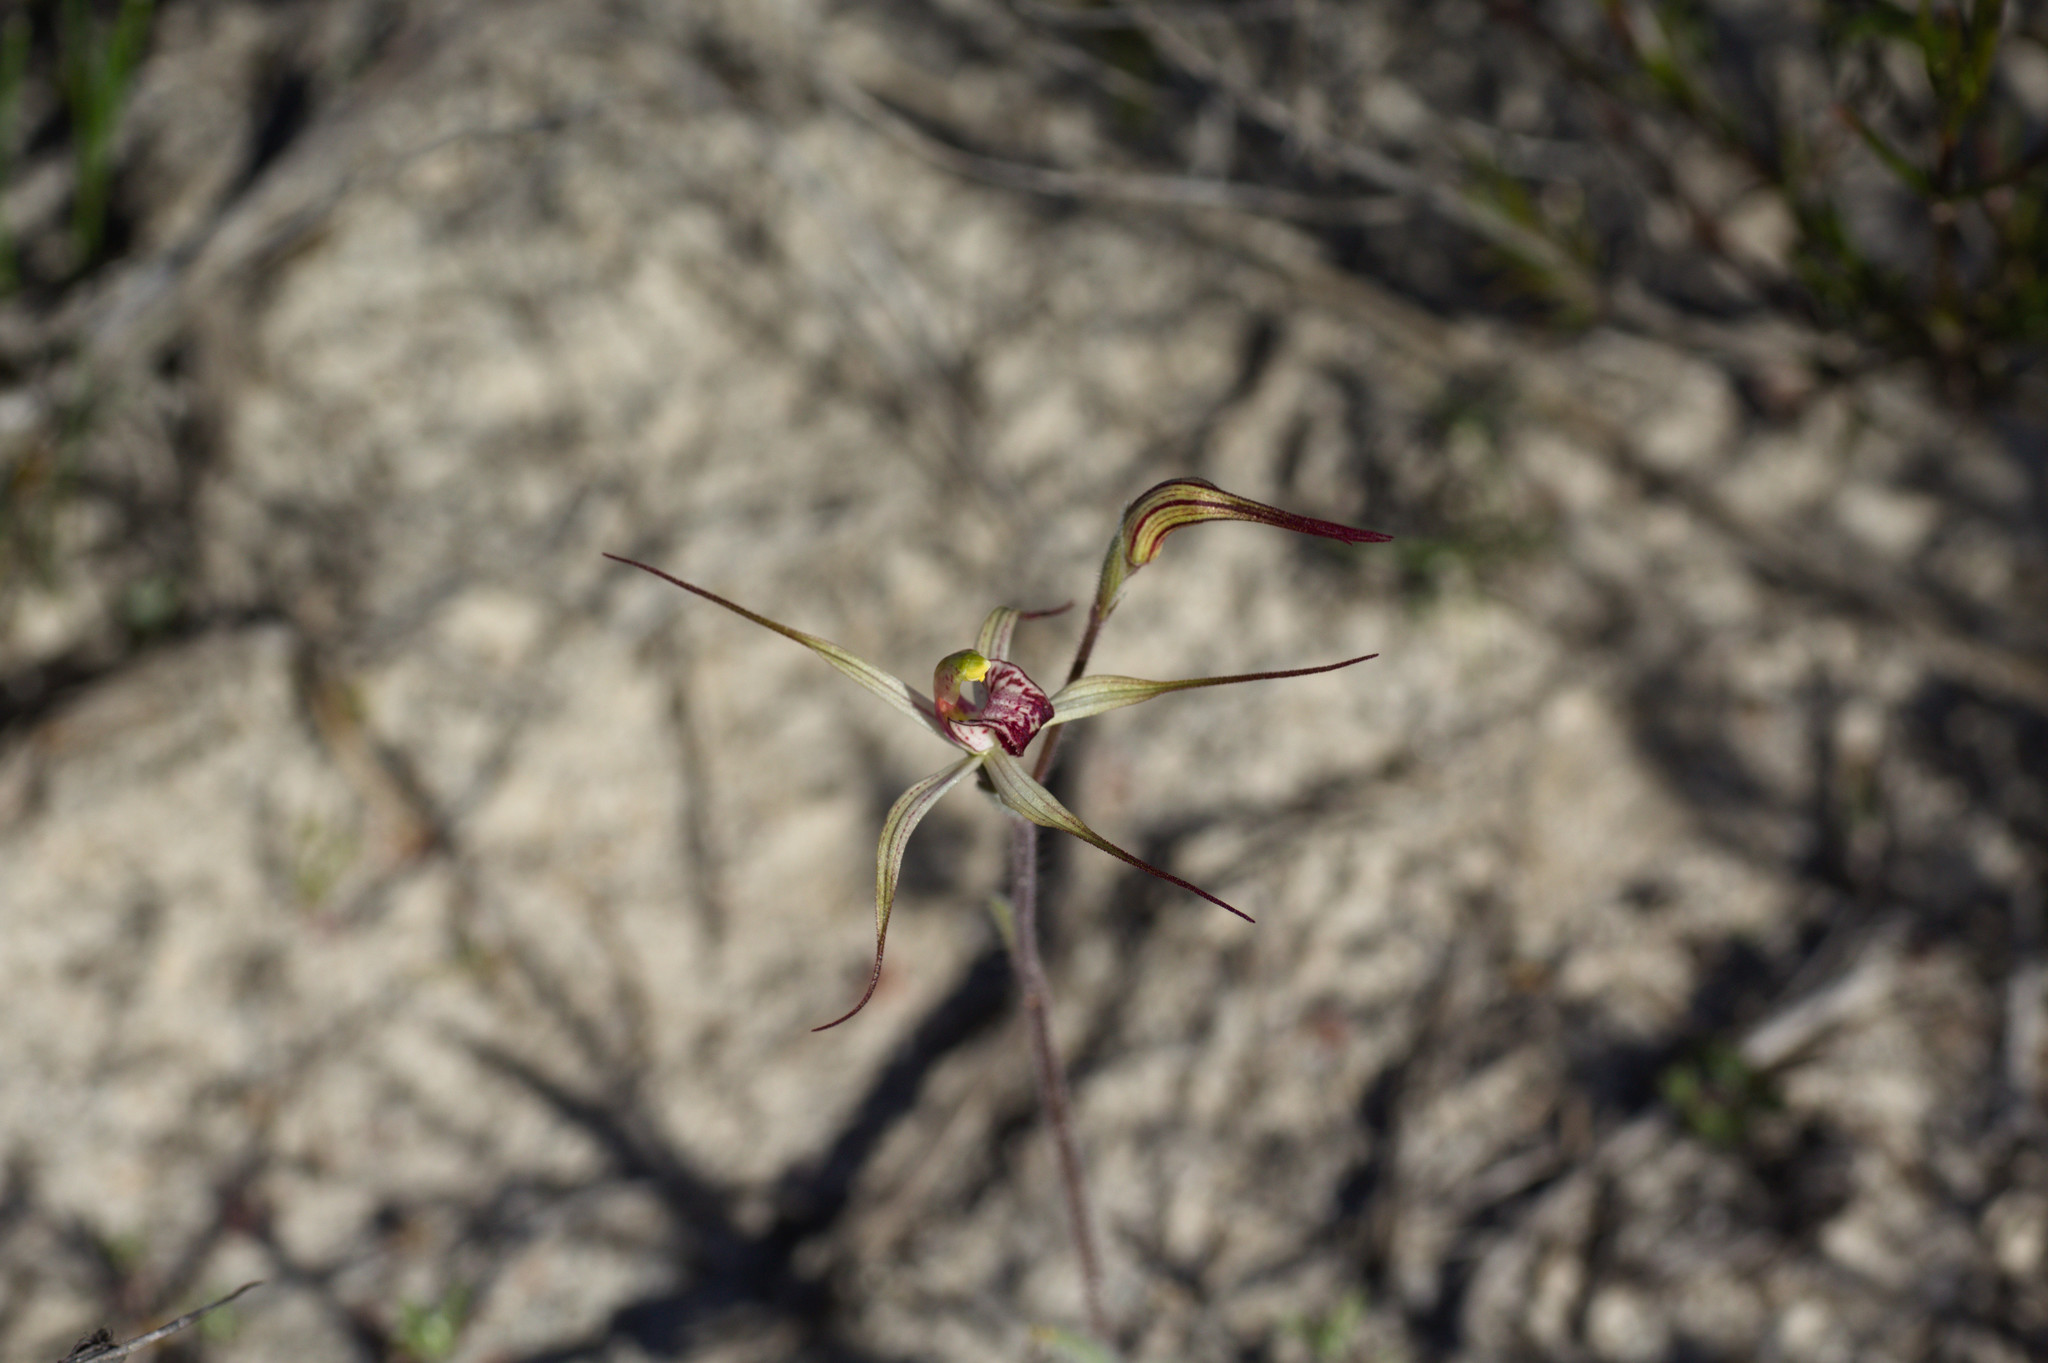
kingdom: Plantae
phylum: Tracheophyta
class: Liliopsida
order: Asparagales
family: Orchidaceae
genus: Caladenia
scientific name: Caladenia radialis
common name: Drooping spider orchid
